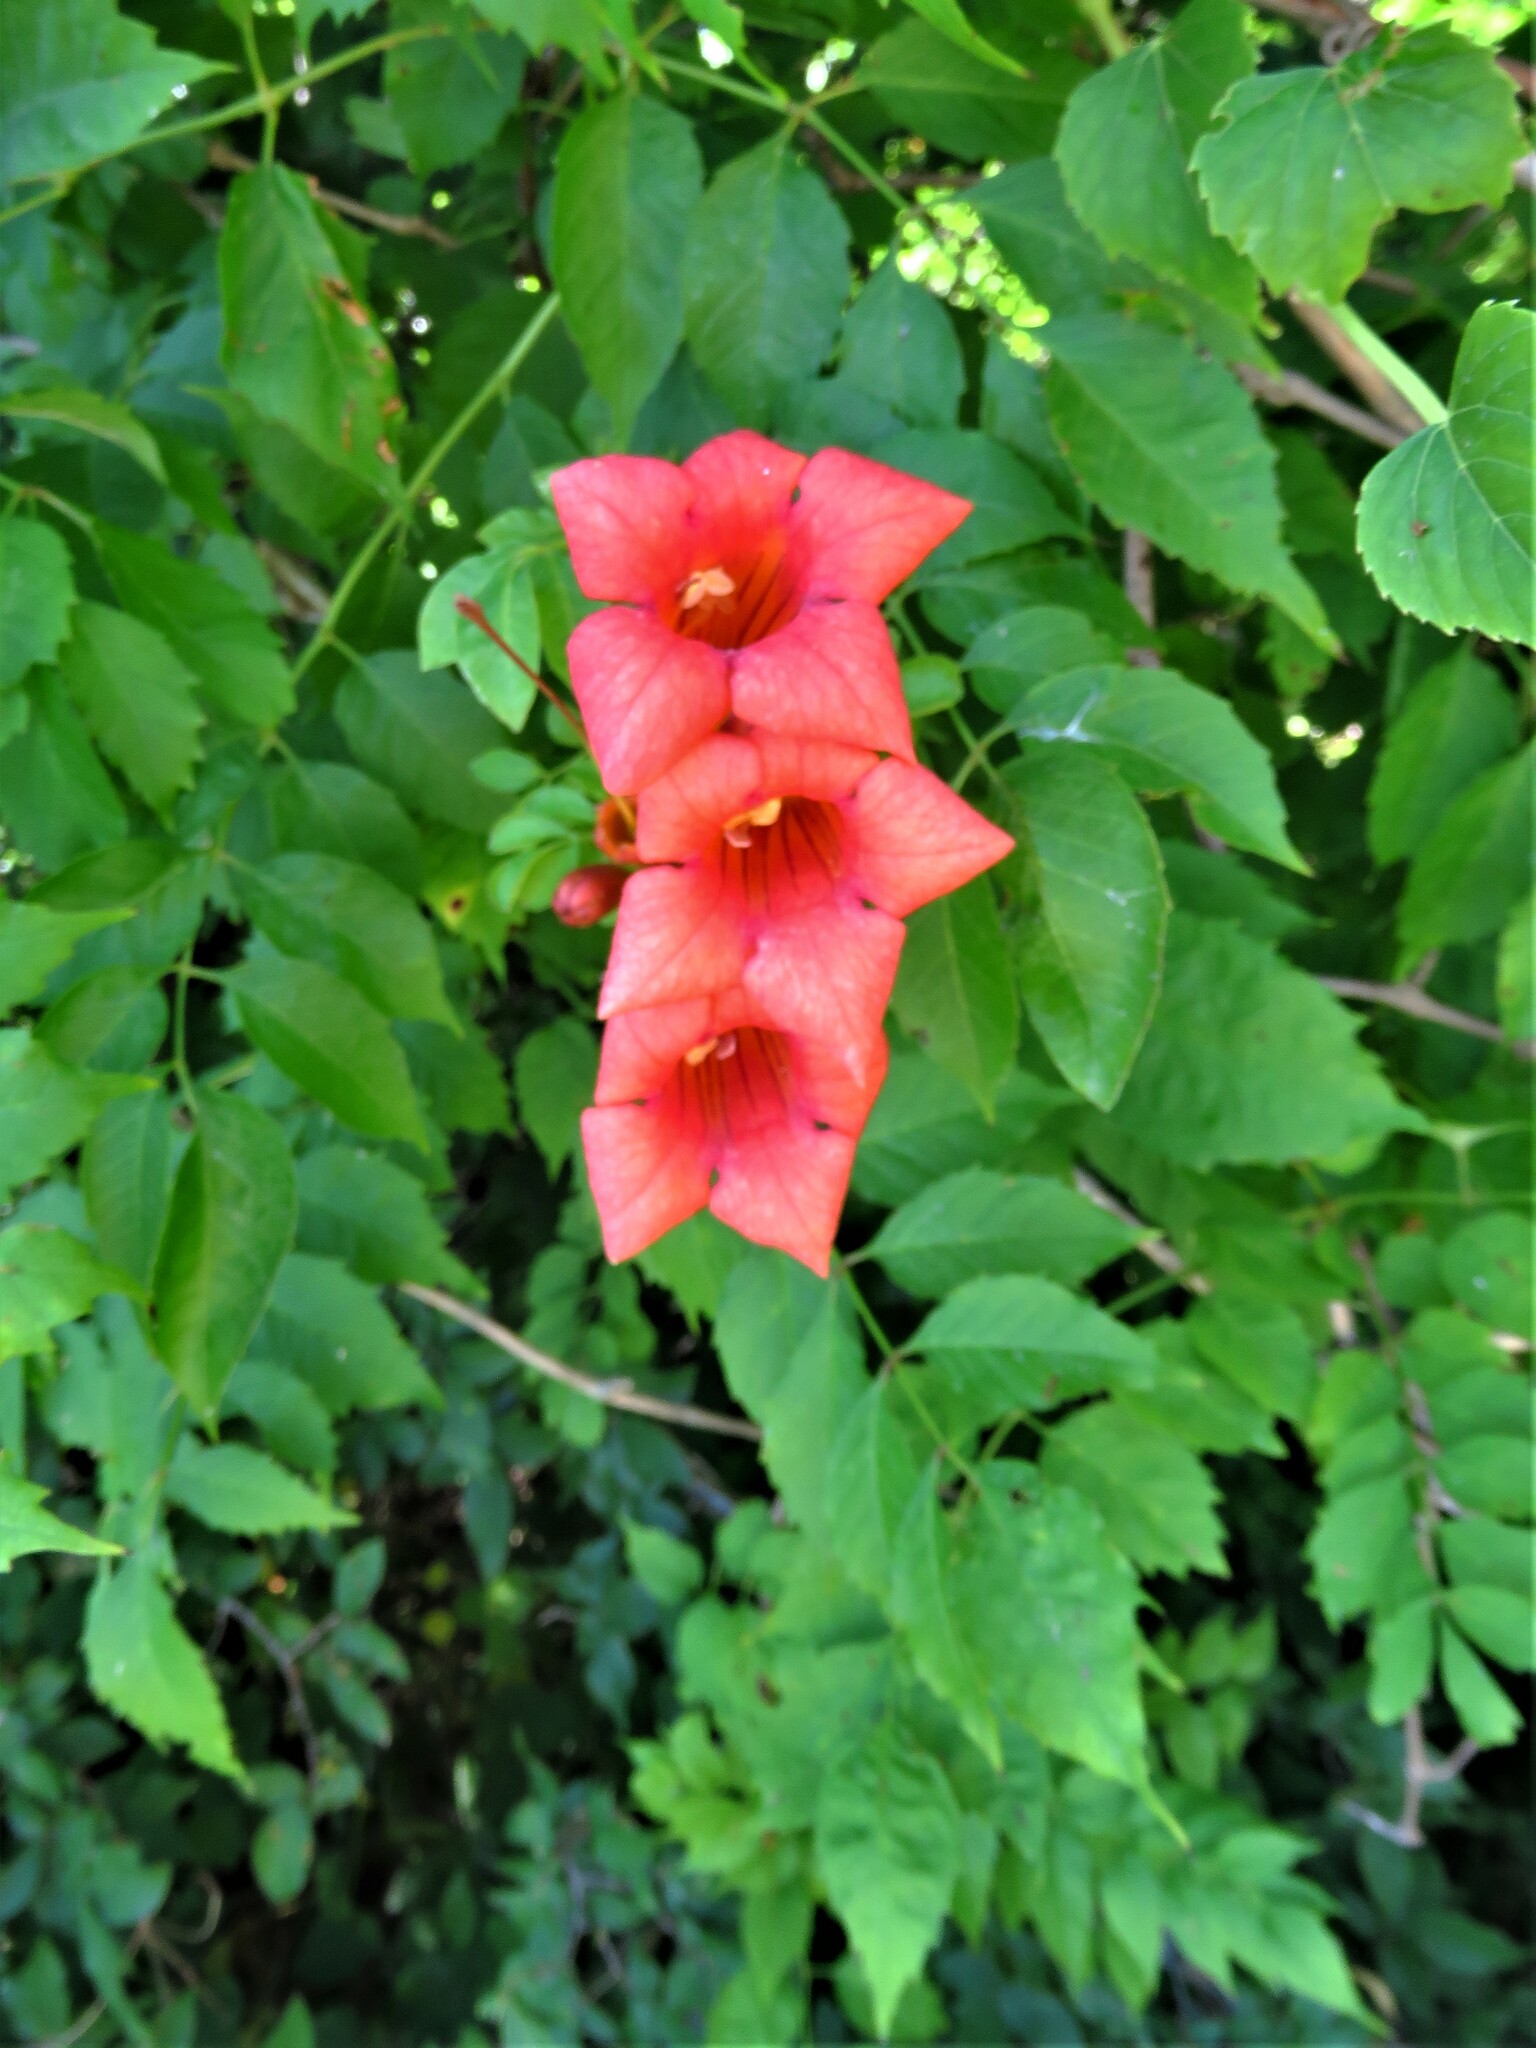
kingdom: Plantae
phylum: Tracheophyta
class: Magnoliopsida
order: Lamiales
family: Bignoniaceae
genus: Campsis
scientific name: Campsis radicans
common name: Trumpet-creeper
